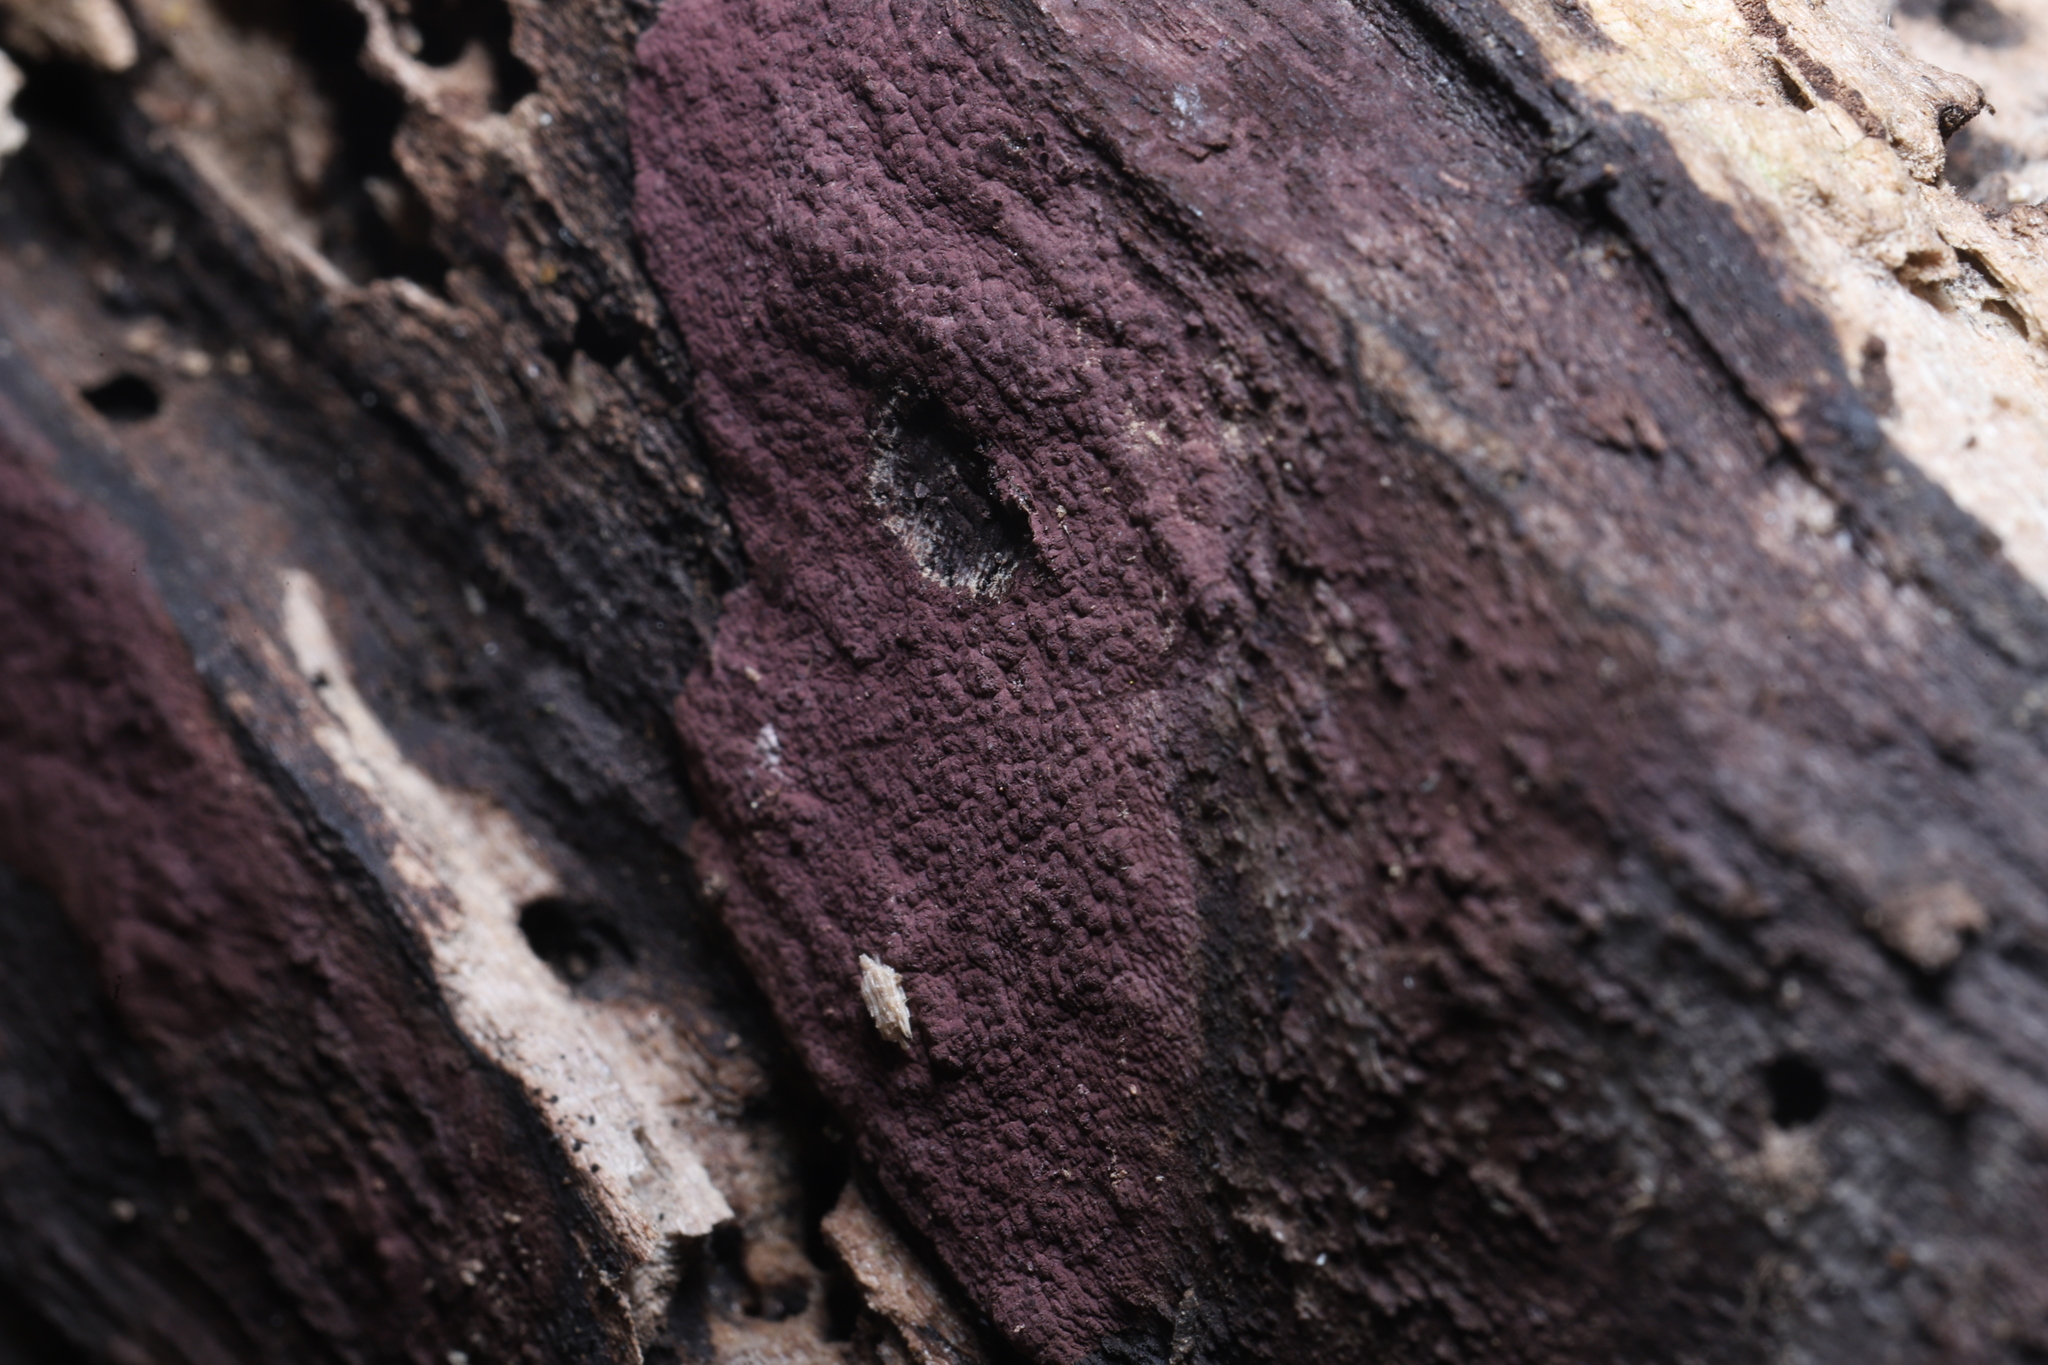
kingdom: Fungi
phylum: Ascomycota
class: Sordariomycetes
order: Xylariales
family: Hypoxylaceae
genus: Hypoxylon
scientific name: Hypoxylon fuscopurpureum
